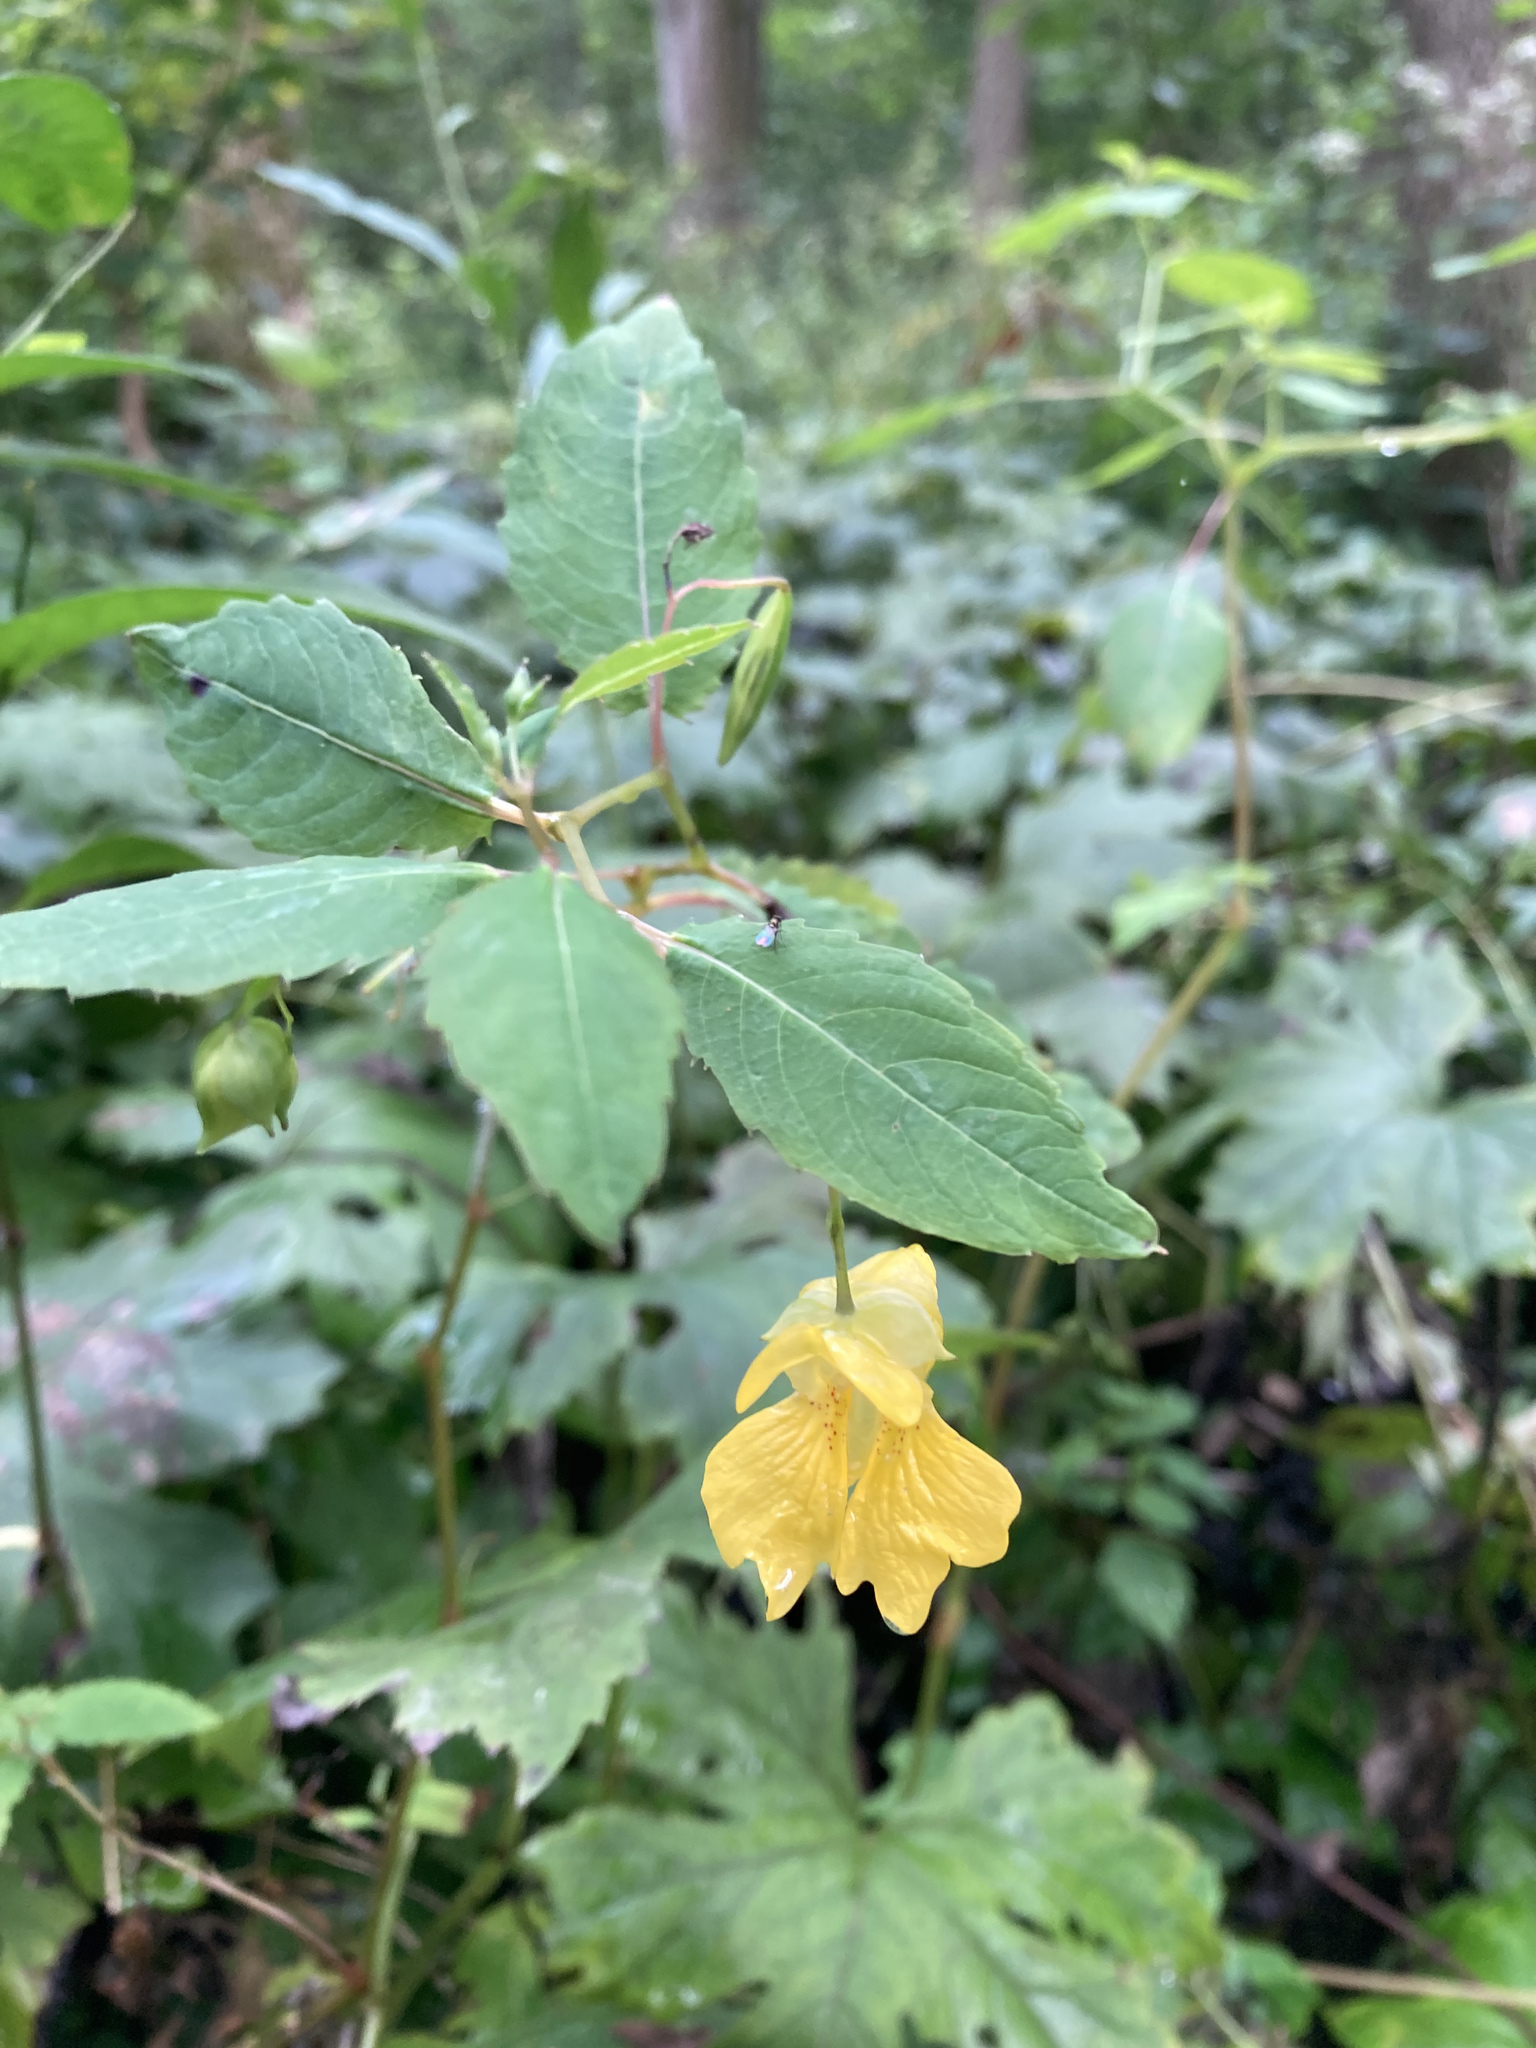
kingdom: Plantae
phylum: Tracheophyta
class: Magnoliopsida
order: Ericales
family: Balsaminaceae
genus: Impatiens
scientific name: Impatiens pallida
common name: Pale snapweed
